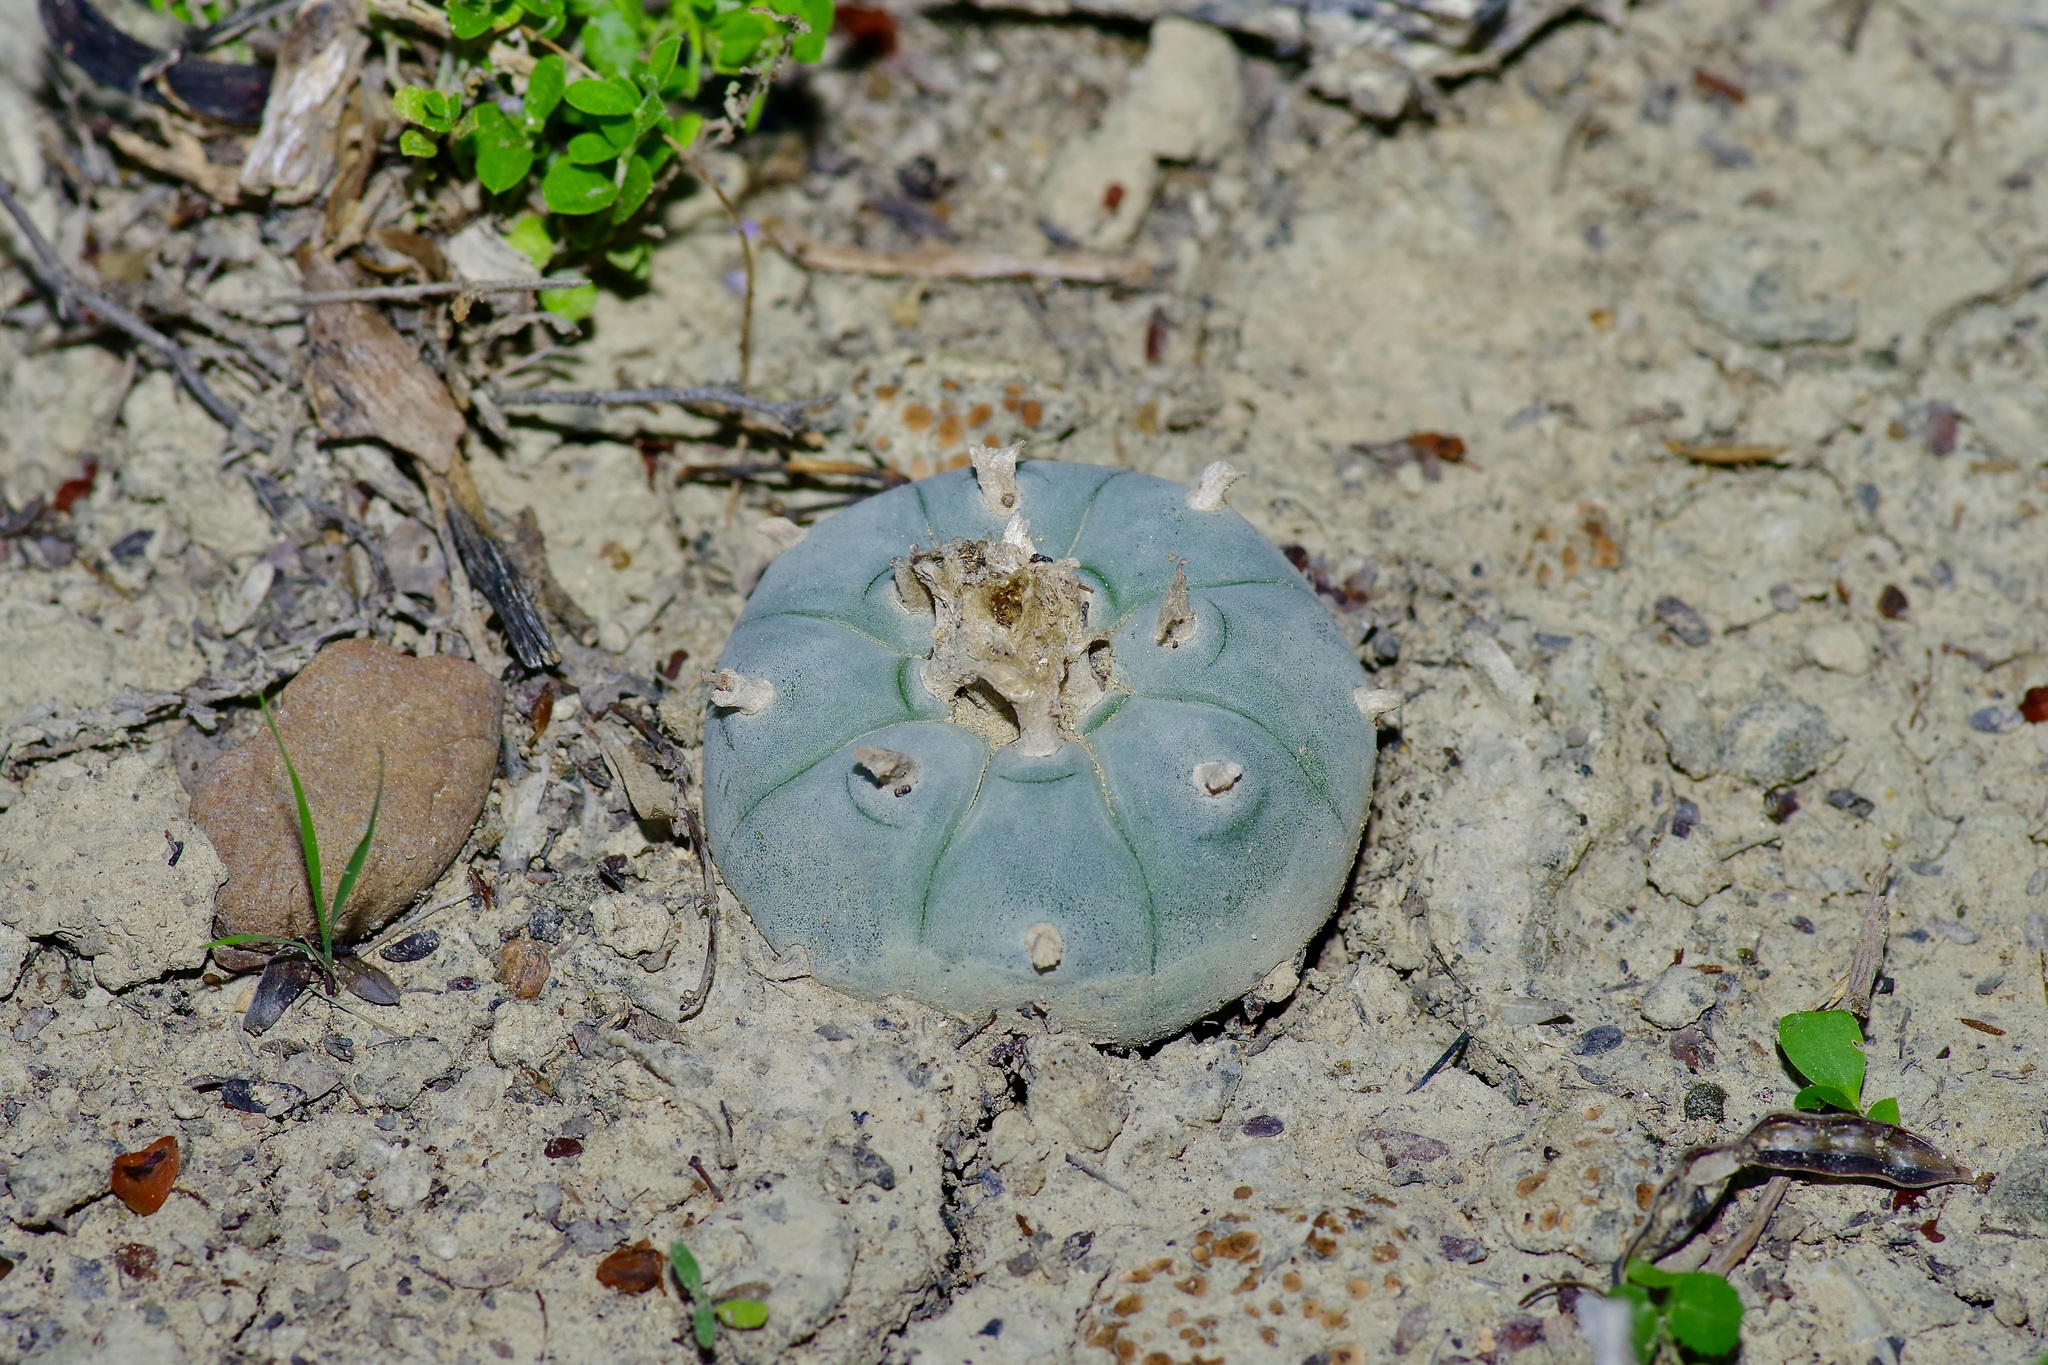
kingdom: Plantae
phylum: Tracheophyta
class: Magnoliopsida
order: Caryophyllales
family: Cactaceae
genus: Lophophora
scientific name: Lophophora williamsii
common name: Indian-dope
